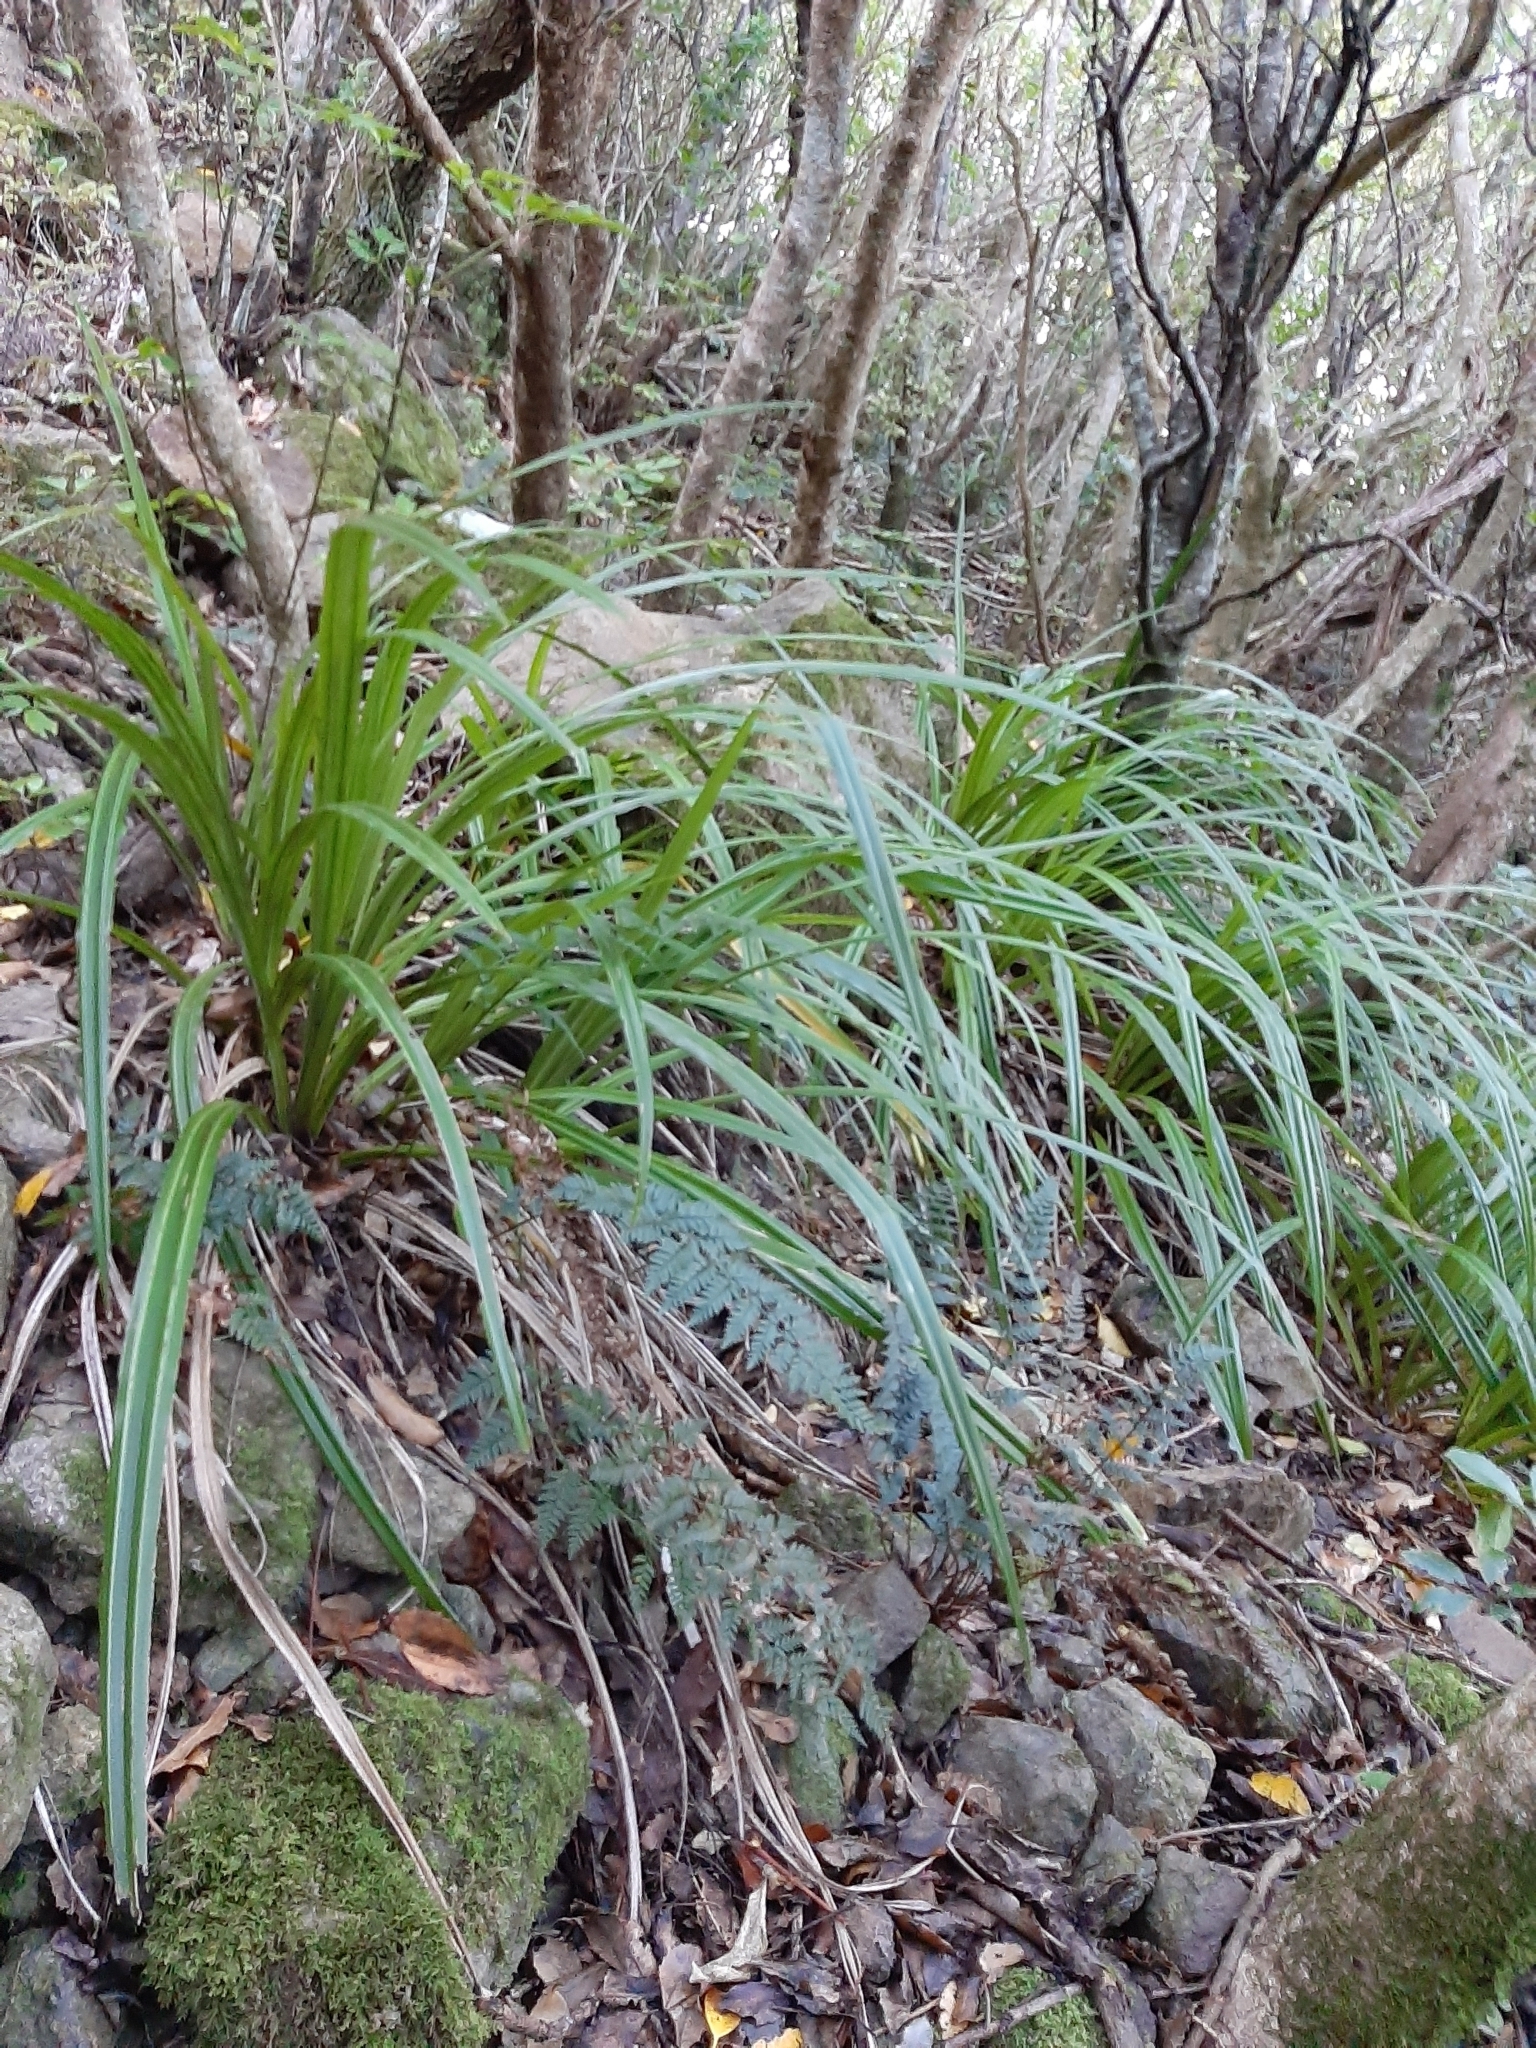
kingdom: Plantae
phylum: Tracheophyta
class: Liliopsida
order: Asparagales
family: Asteliaceae
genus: Astelia
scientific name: Astelia fragrans
